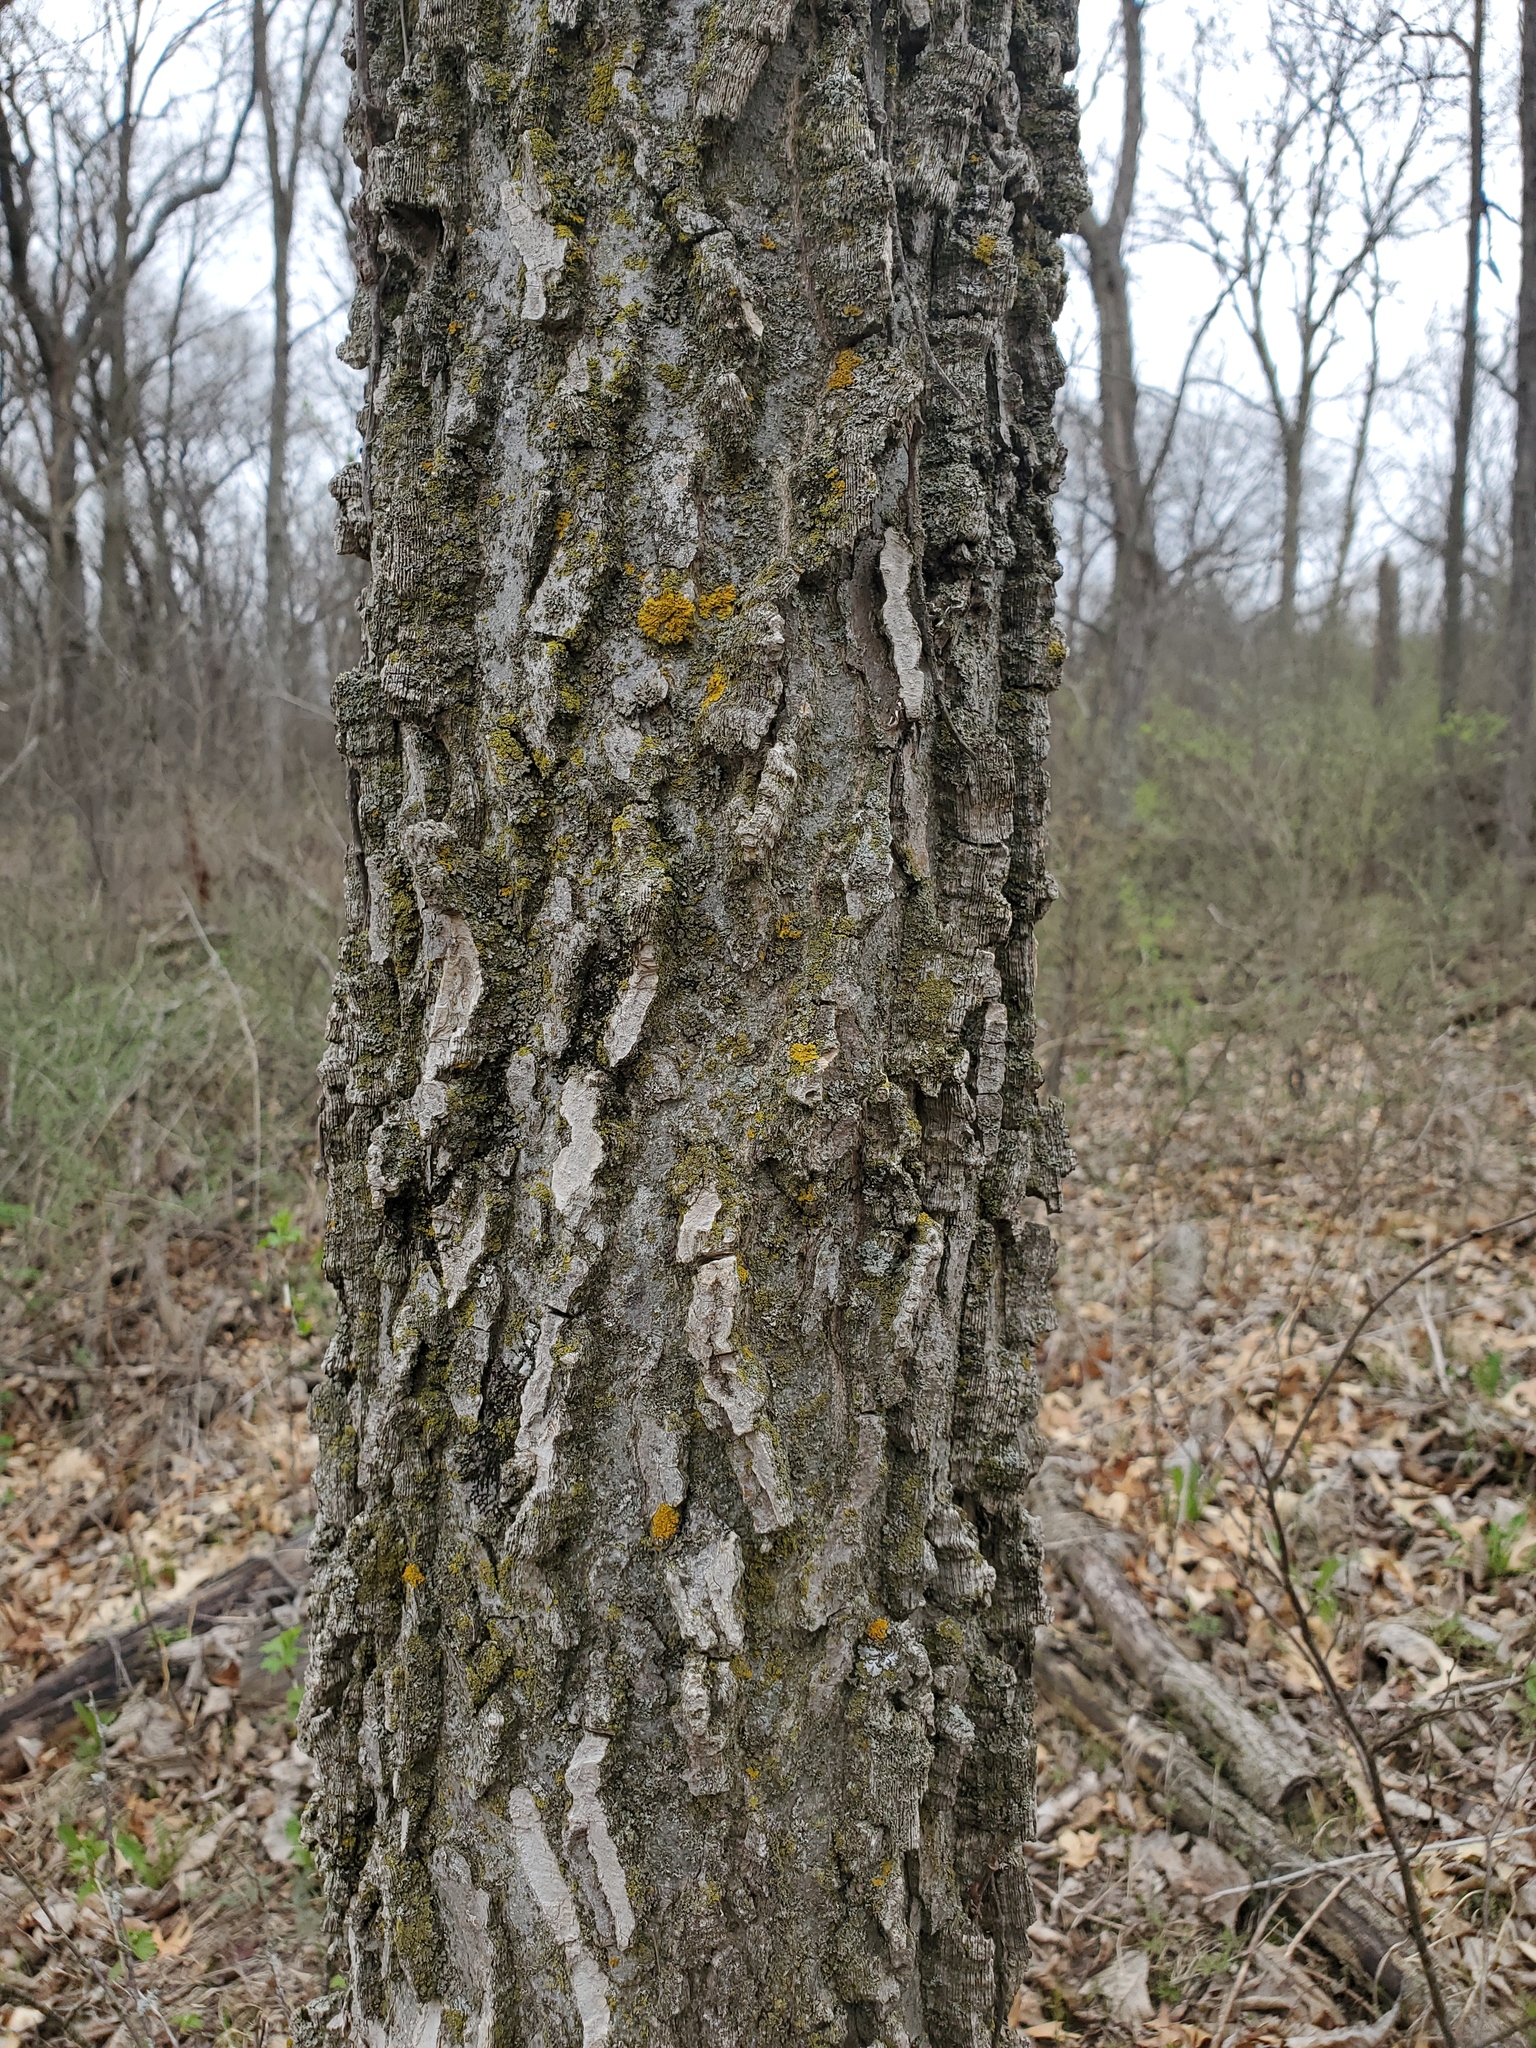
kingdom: Plantae
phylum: Tracheophyta
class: Magnoliopsida
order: Rosales
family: Cannabaceae
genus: Celtis
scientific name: Celtis occidentalis
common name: Common hackberry
